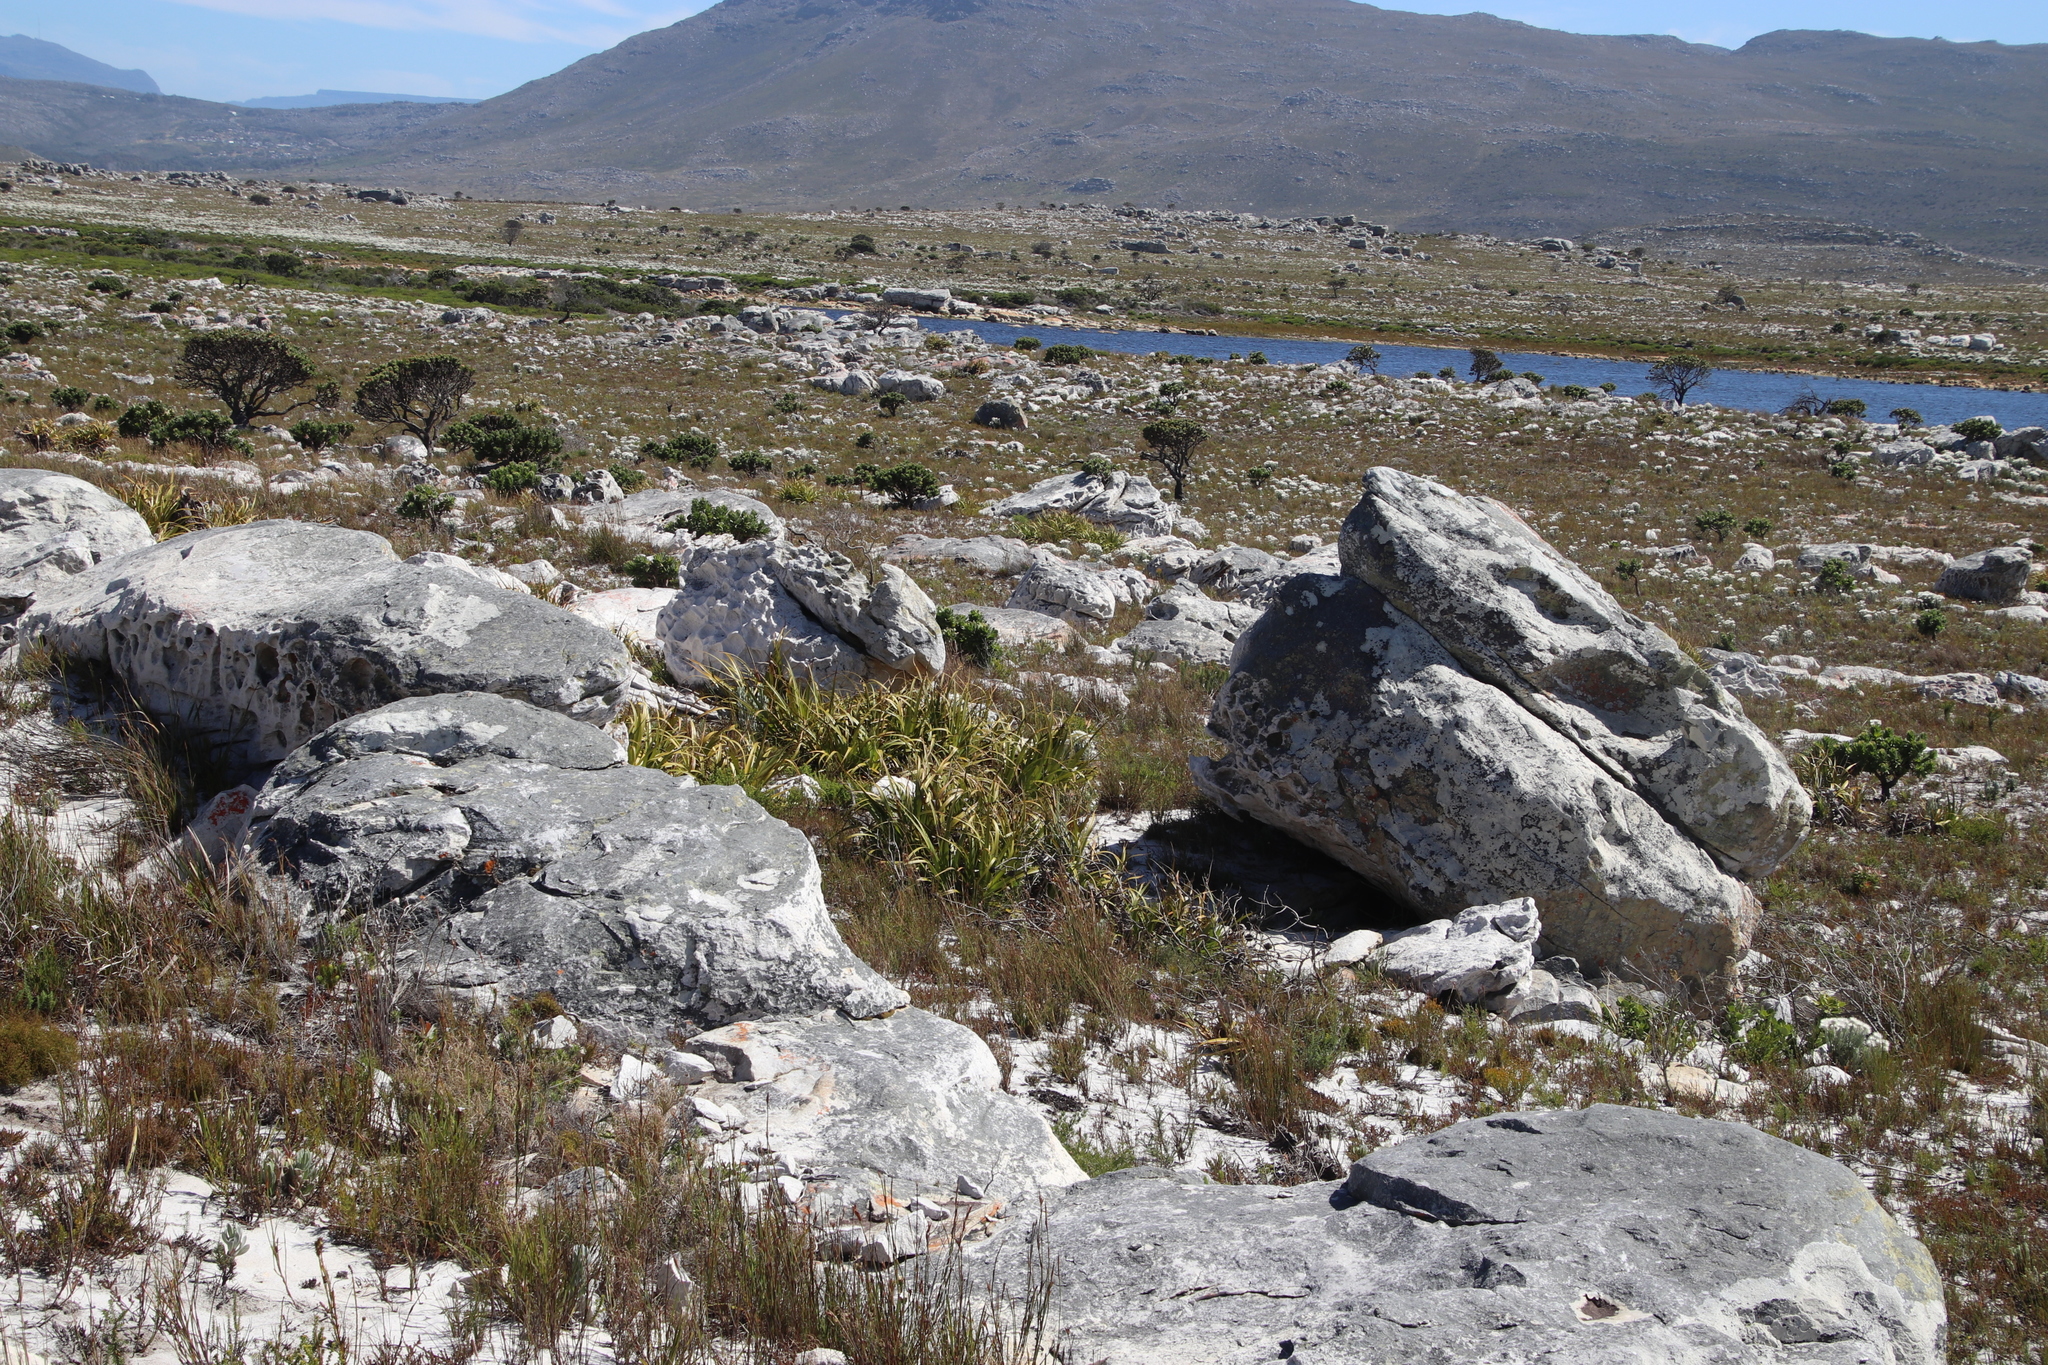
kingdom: Plantae
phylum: Tracheophyta
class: Liliopsida
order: Poales
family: Cyperaceae
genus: Tetraria
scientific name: Tetraria thermalis
